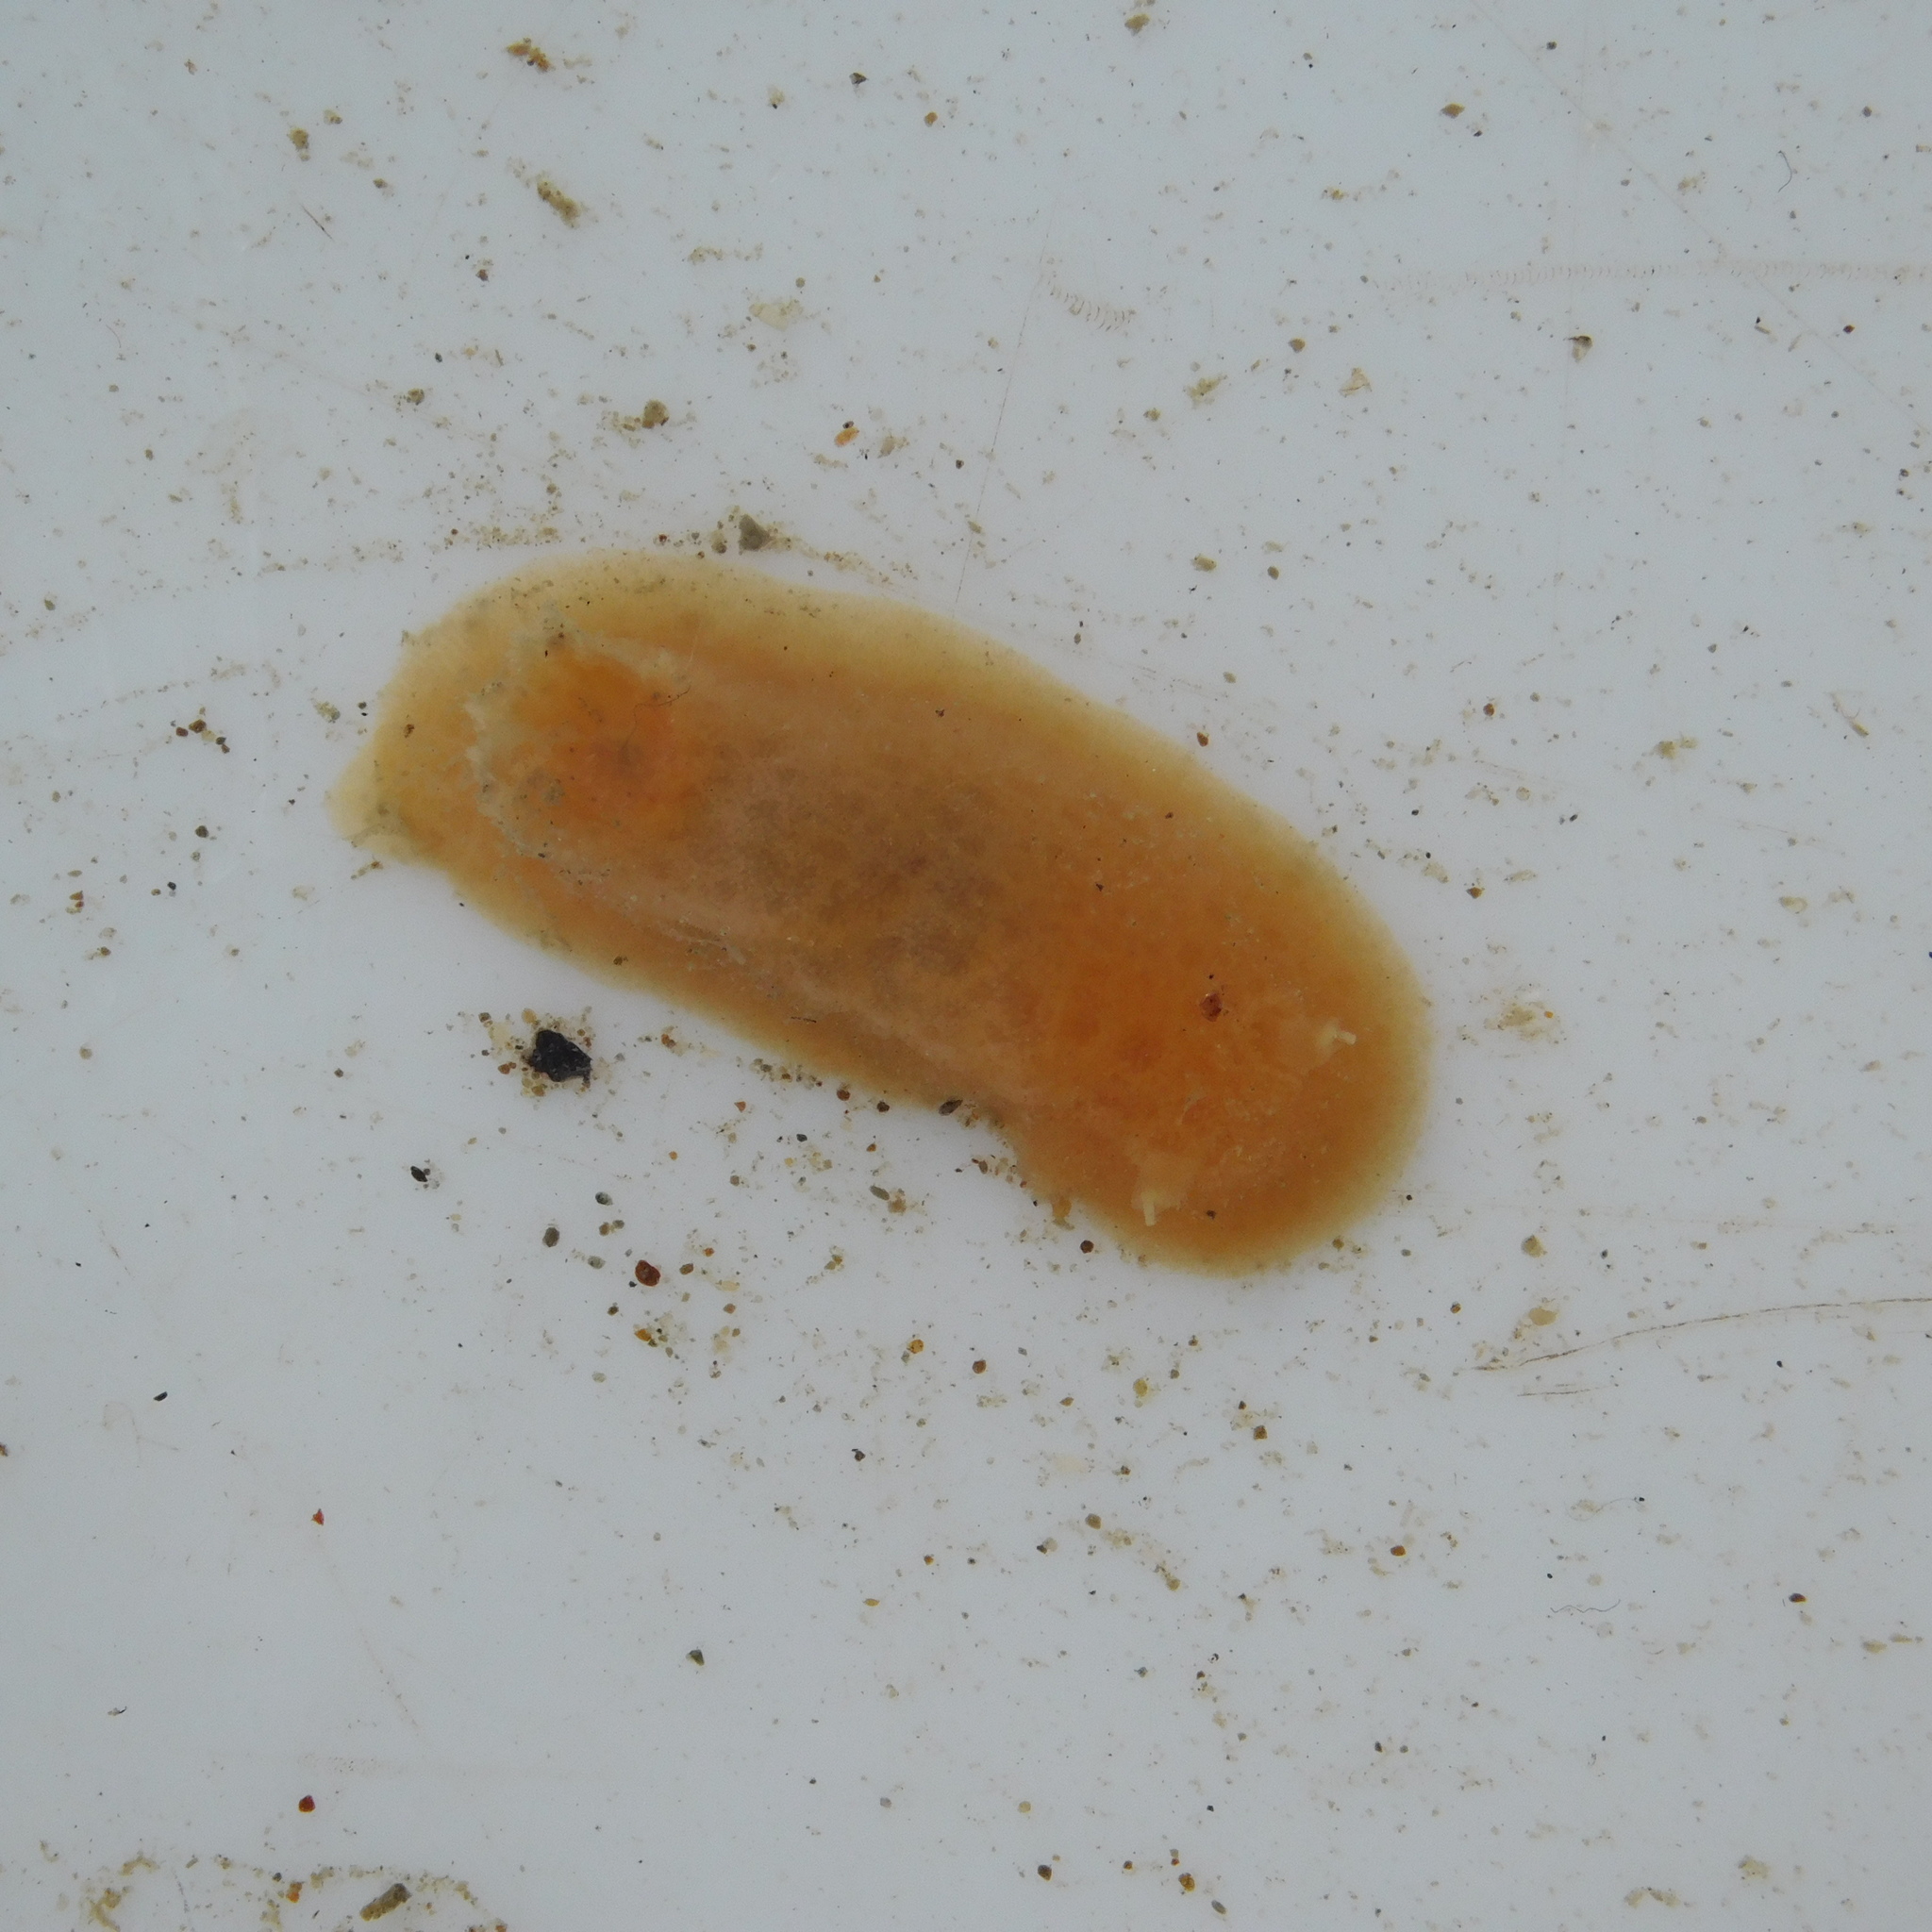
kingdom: Animalia
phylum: Mollusca
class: Gastropoda
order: Nudibranchia
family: Discodorididae
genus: Jorunna
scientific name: Jorunna pantherina
